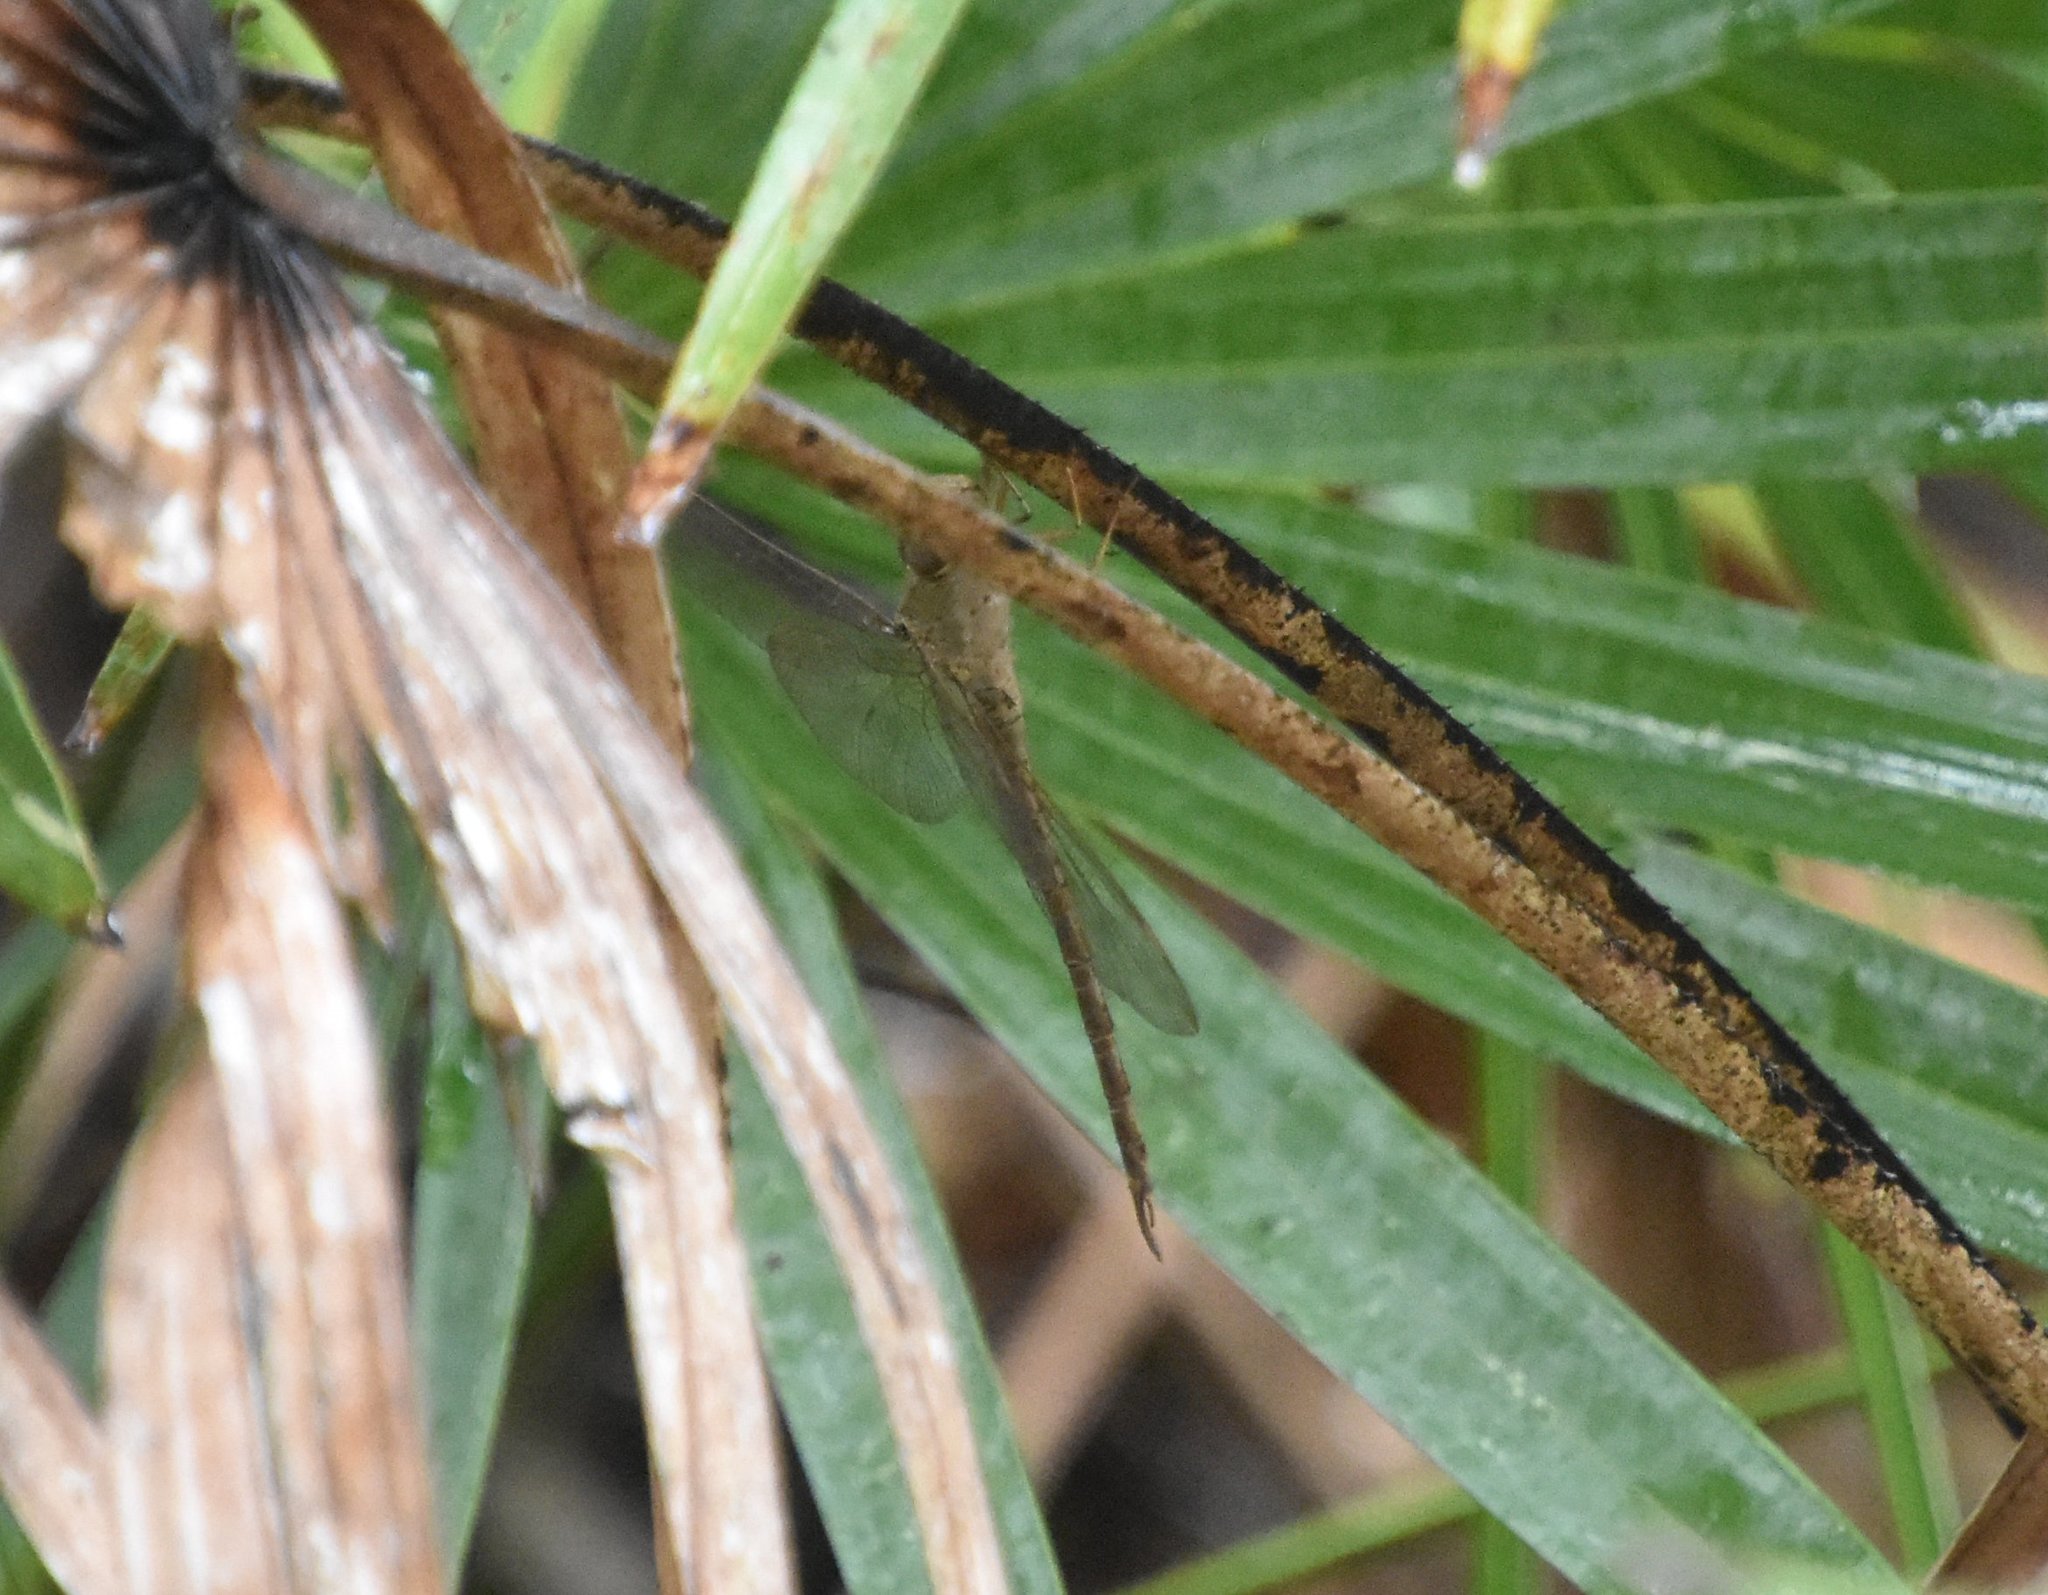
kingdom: Animalia
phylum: Arthropoda
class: Insecta
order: Odonata
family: Aeshnidae
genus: Gynacantha
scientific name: Gynacantha nervosa
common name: Twilight darner
